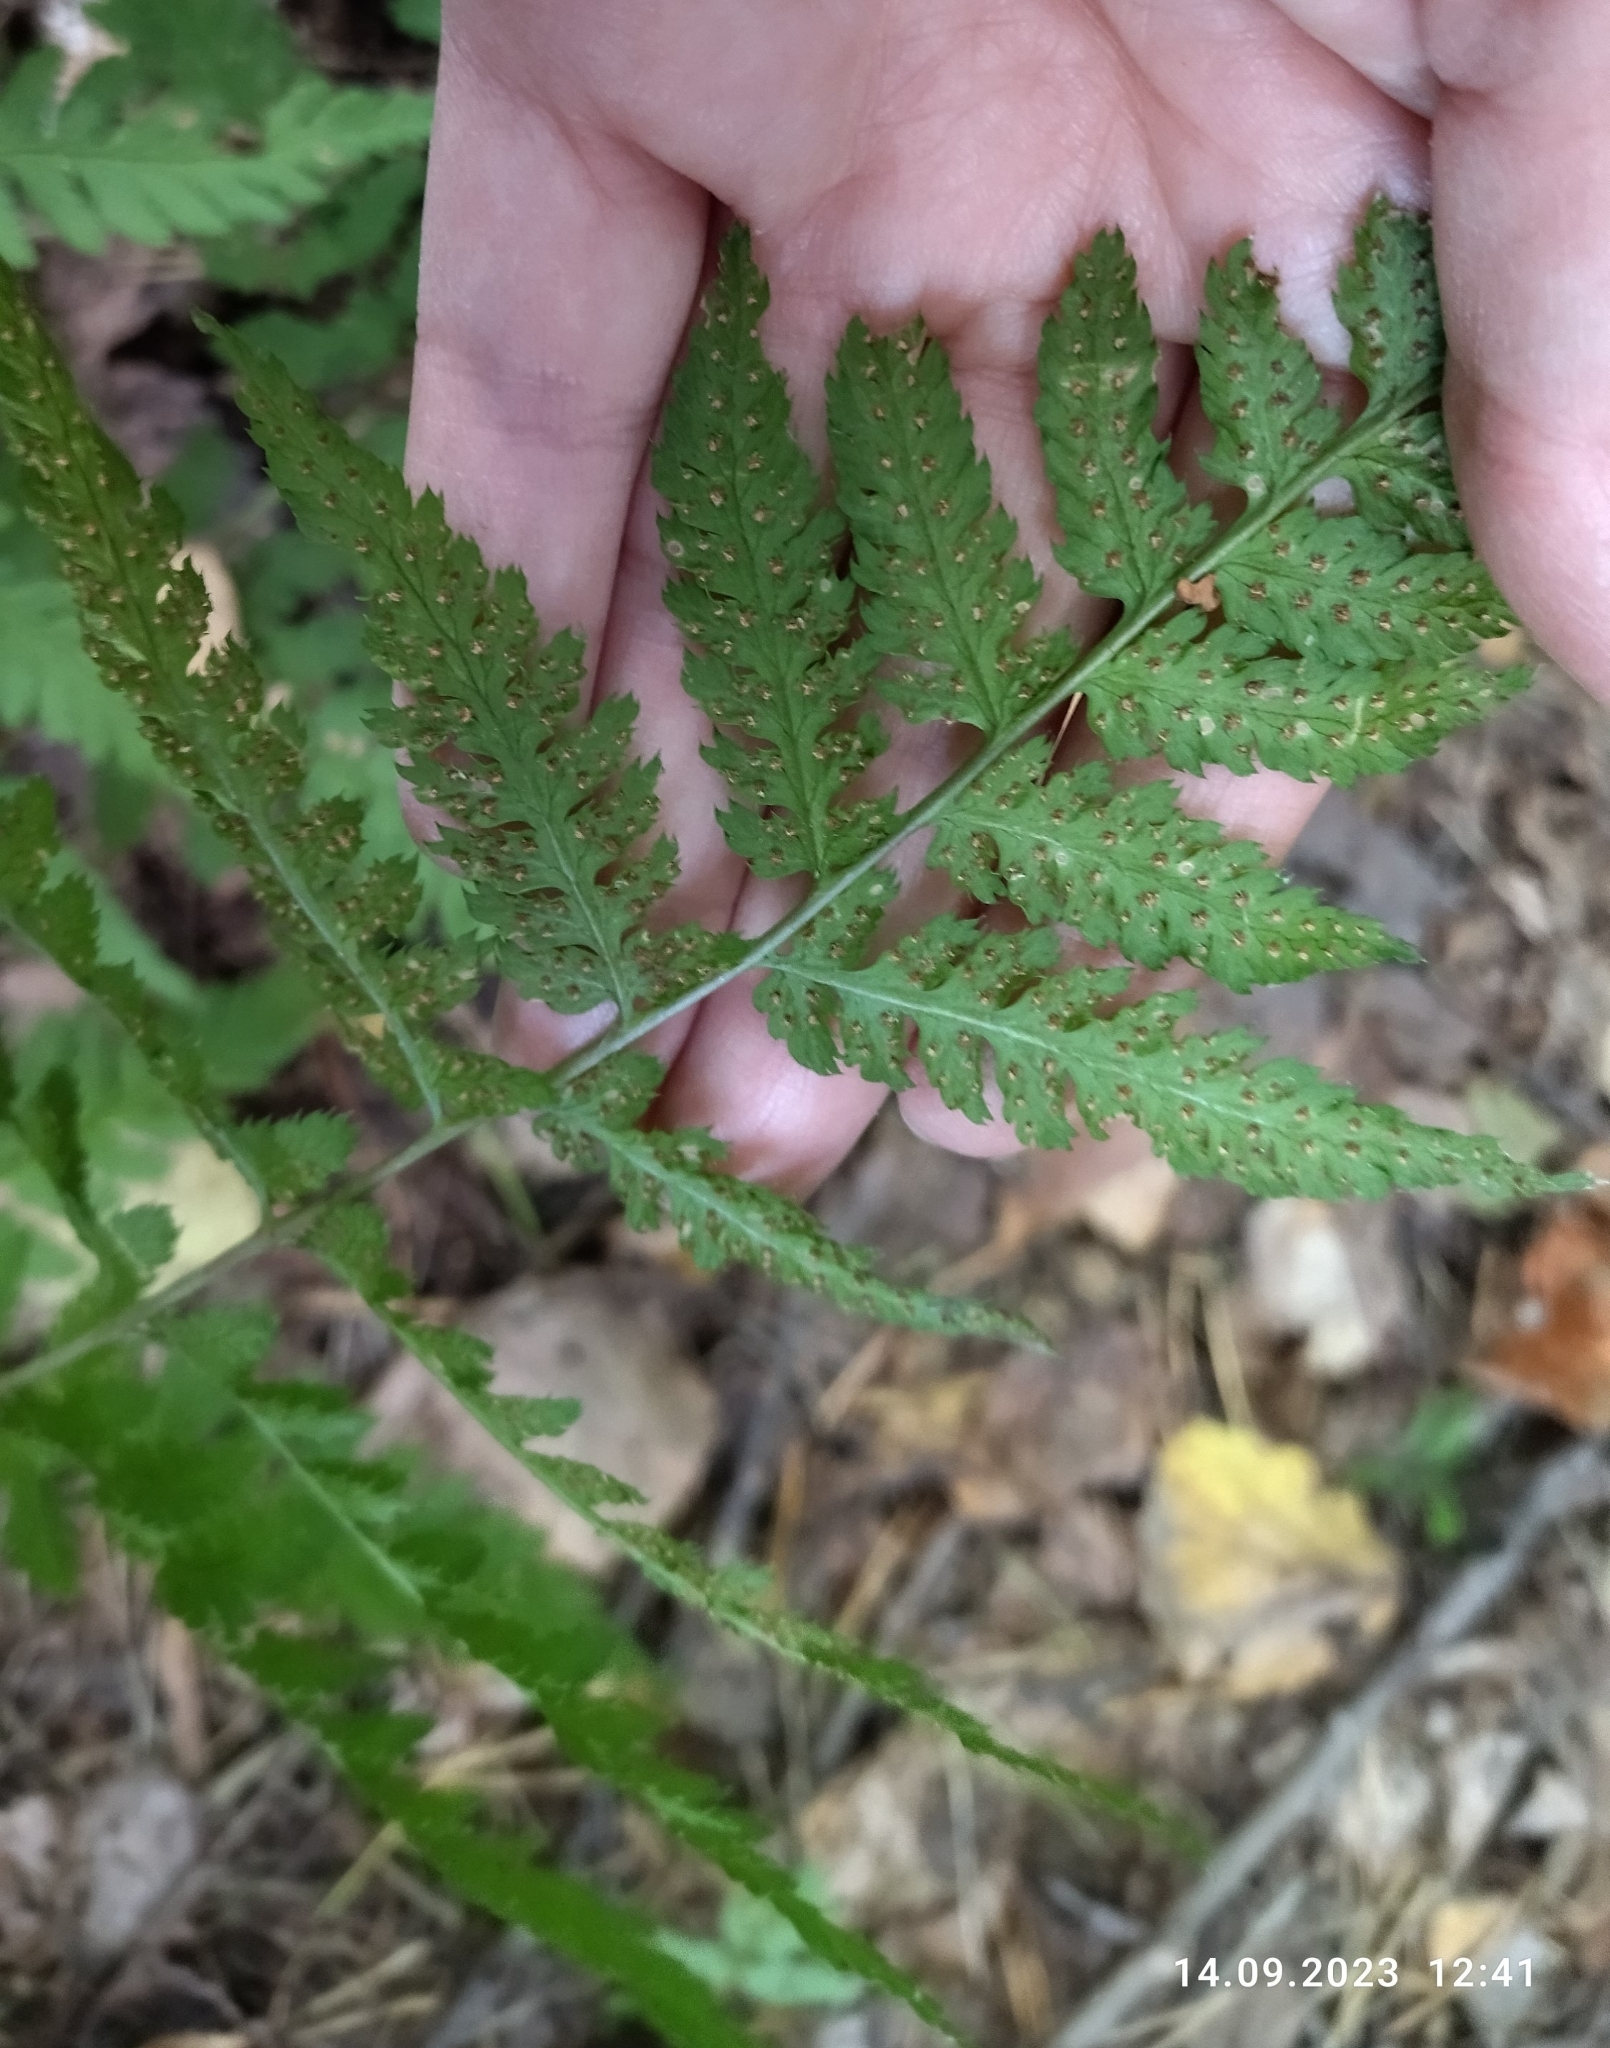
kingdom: Plantae
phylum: Tracheophyta
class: Polypodiopsida
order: Polypodiales
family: Dryopteridaceae
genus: Dryopteris
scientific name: Dryopteris carthusiana
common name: Narrow buckler-fern
